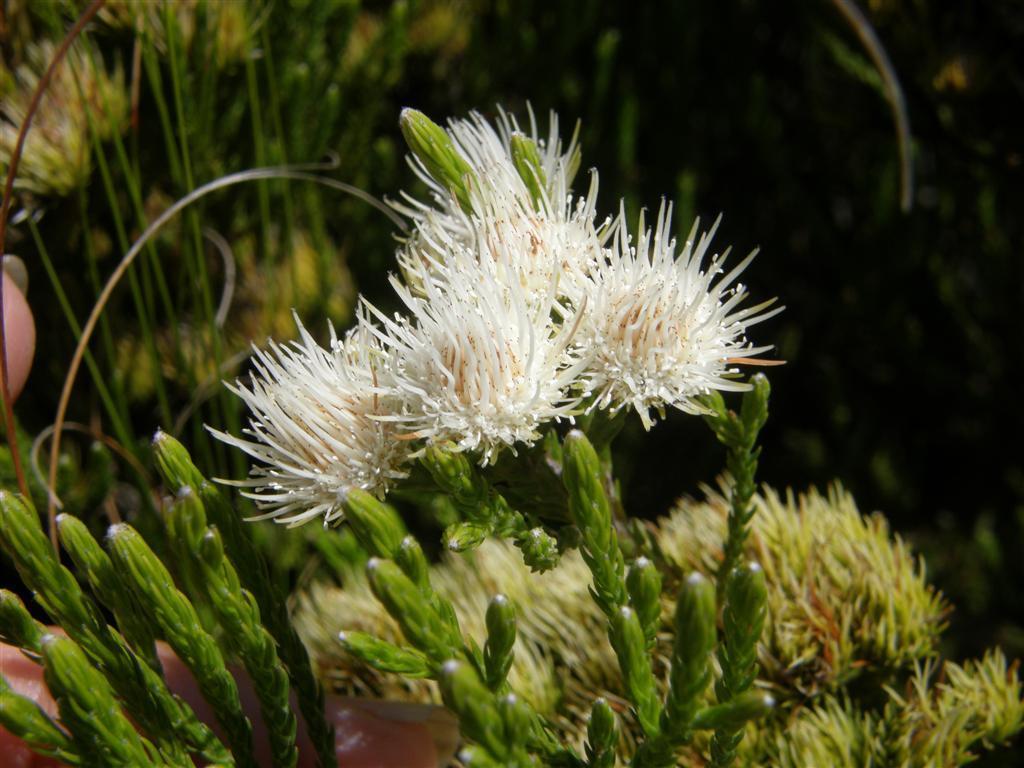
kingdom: Plantae
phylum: Tracheophyta
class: Magnoliopsida
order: Bruniales
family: Bruniaceae
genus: Brunia
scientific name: Brunia paleacea
